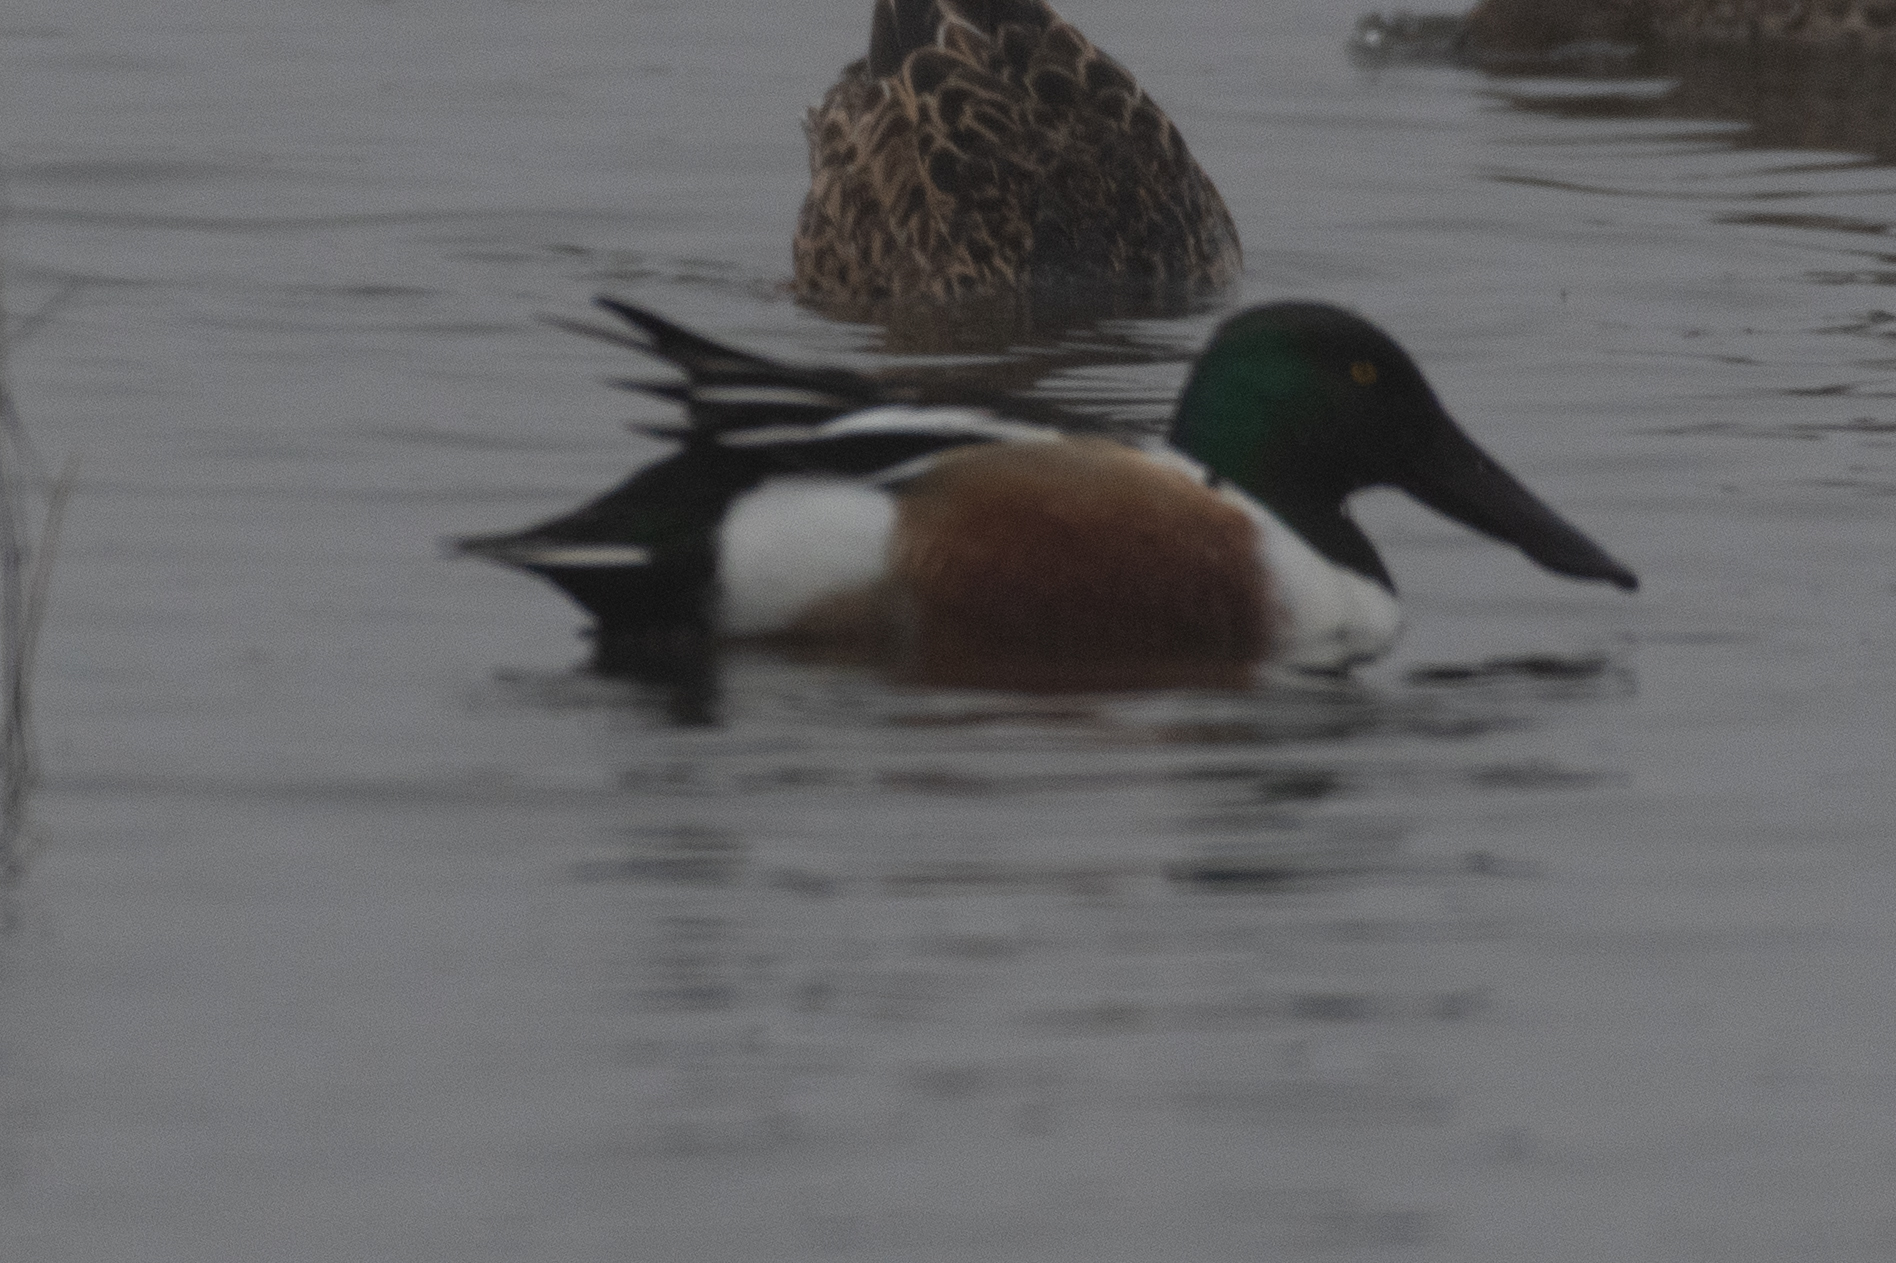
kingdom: Animalia
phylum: Chordata
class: Aves
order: Anseriformes
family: Anatidae
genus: Spatula
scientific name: Spatula clypeata
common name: Northern shoveler
